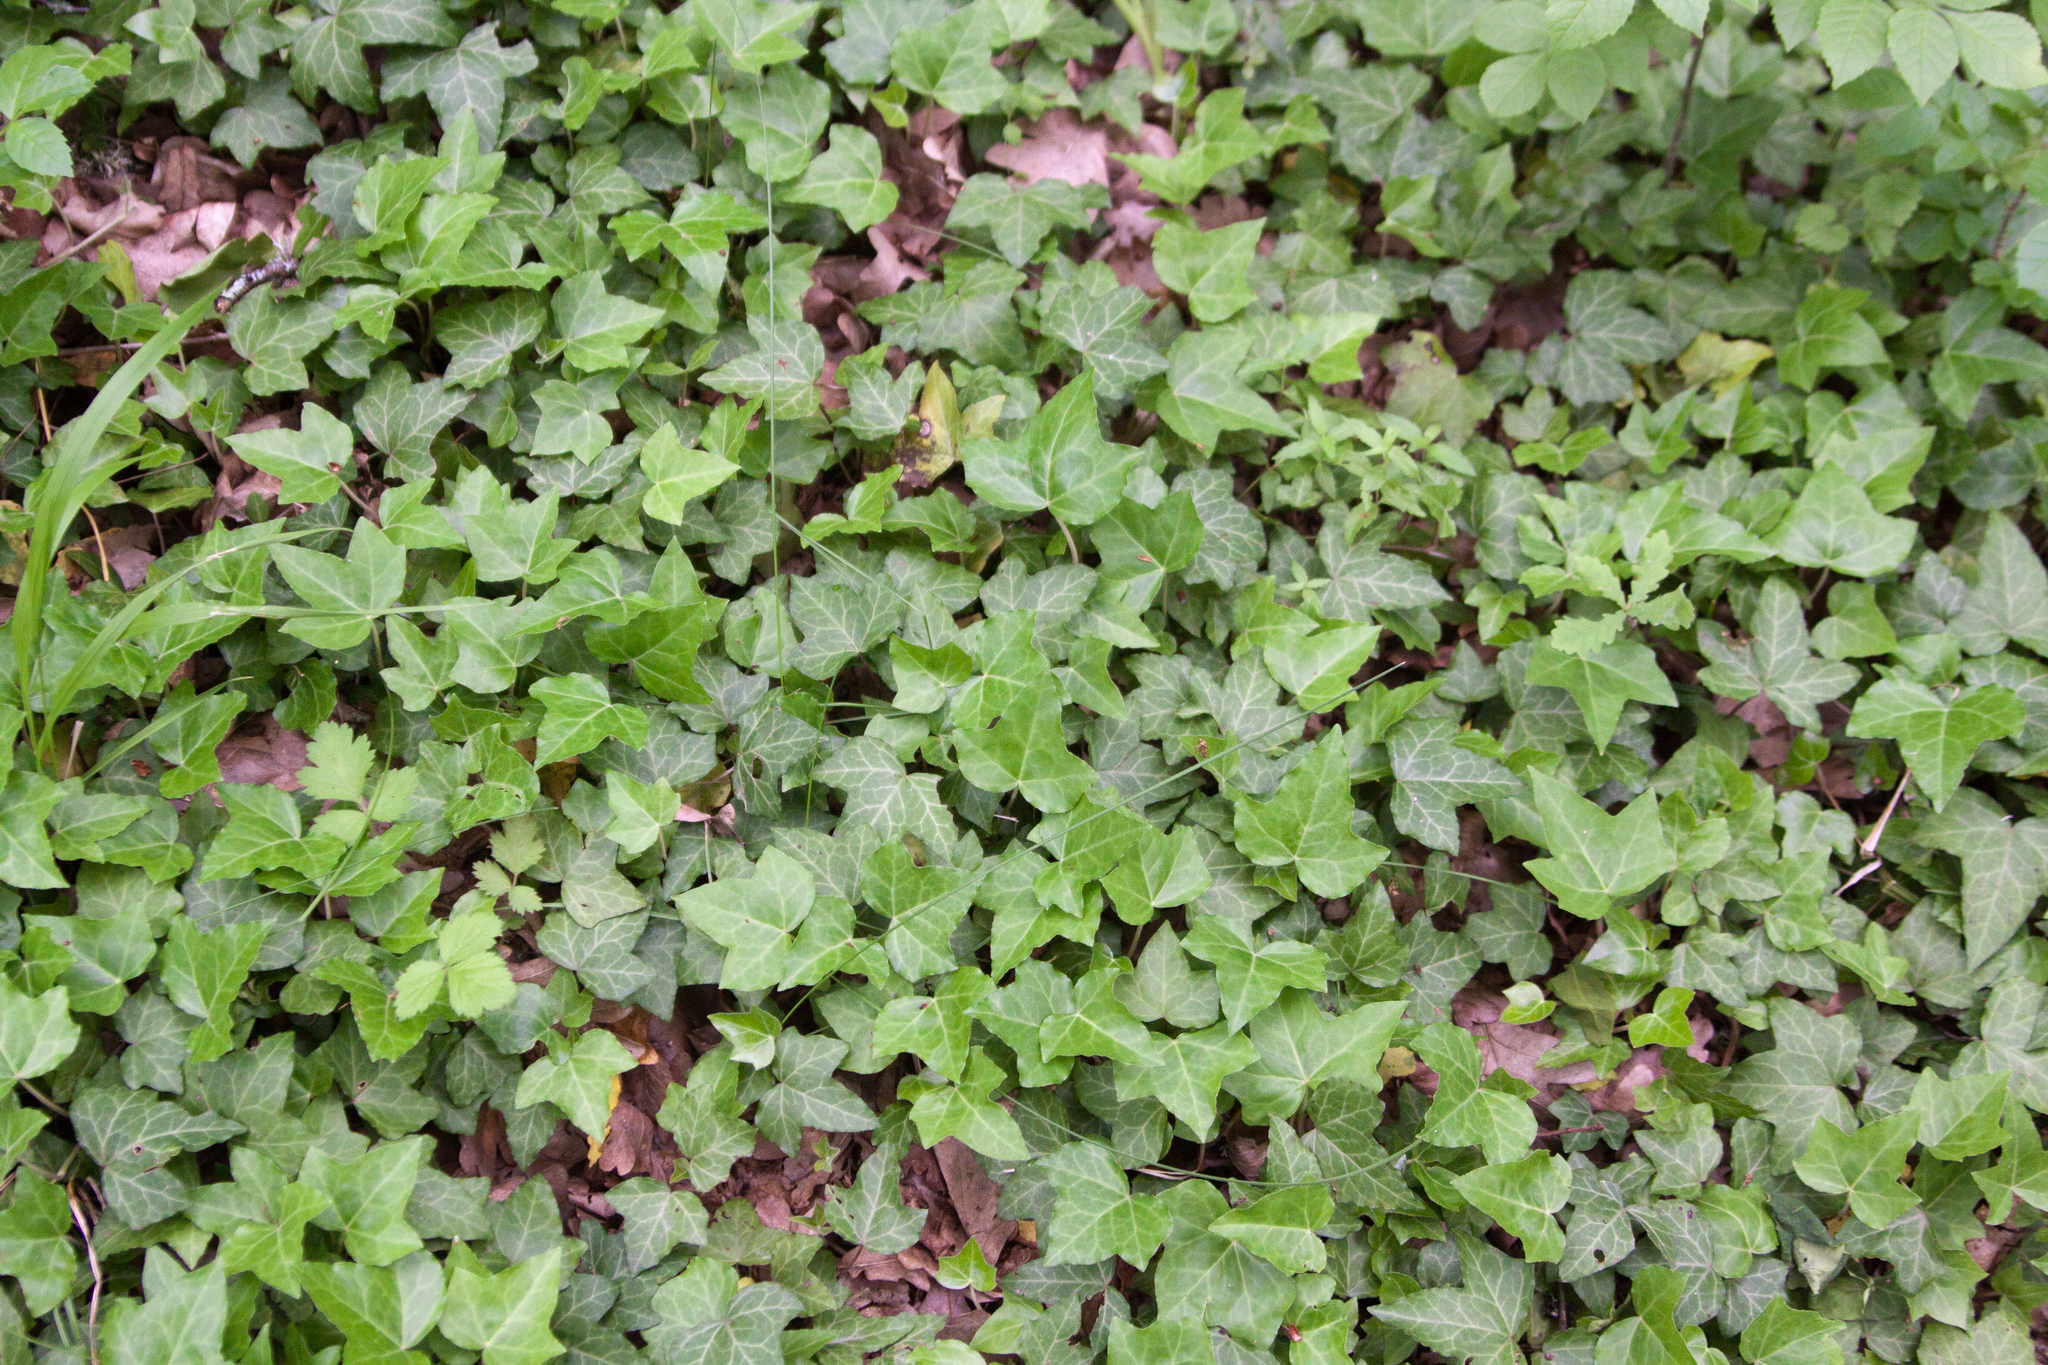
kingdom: Plantae
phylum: Tracheophyta
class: Magnoliopsida
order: Apiales
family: Araliaceae
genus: Hedera
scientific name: Hedera helix
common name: Ivy
